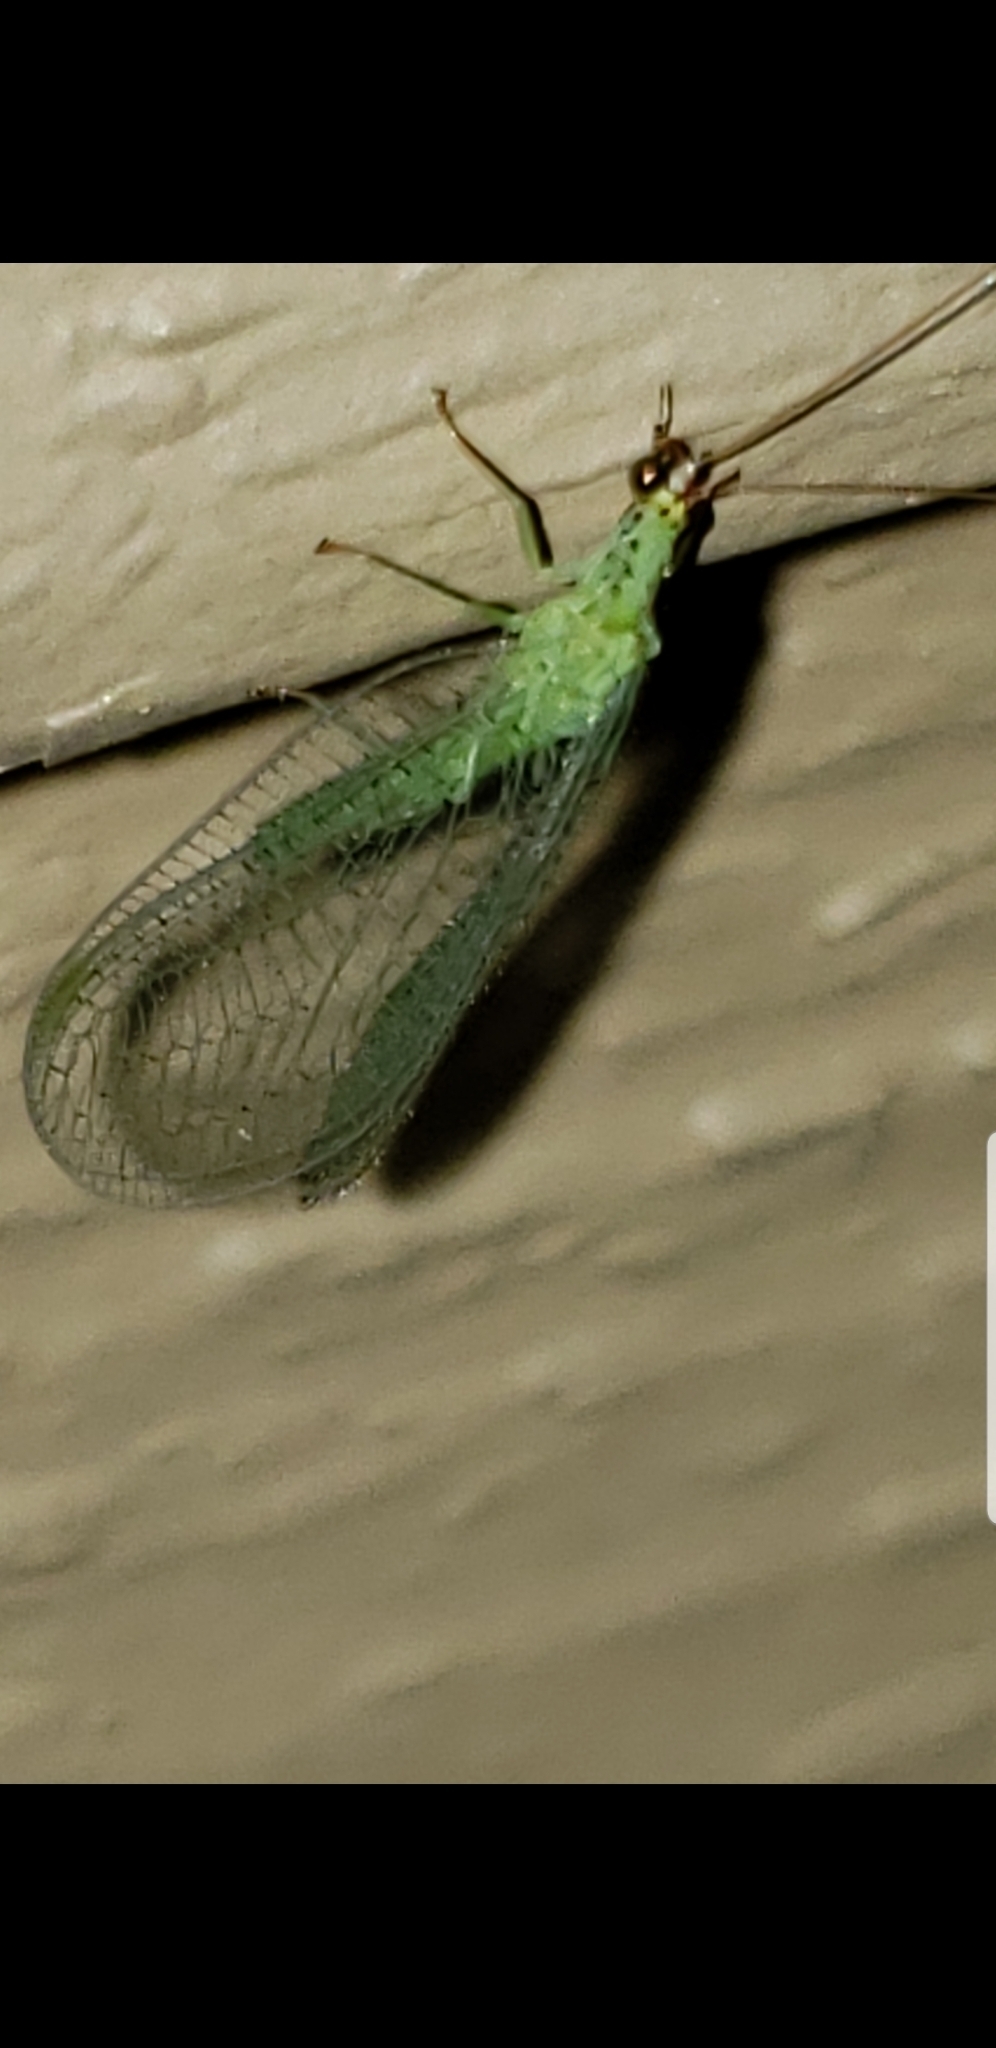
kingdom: Animalia
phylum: Arthropoda
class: Insecta
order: Neuroptera
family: Chrysopidae
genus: Chrysopa
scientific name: Chrysopa oculata
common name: Golden-eyed lacewing
